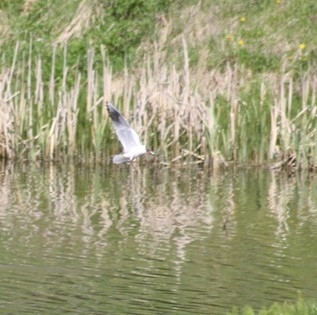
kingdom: Animalia
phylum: Chordata
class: Aves
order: Charadriiformes
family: Laridae
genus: Chroicocephalus
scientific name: Chroicocephalus ridibundus
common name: Black-headed gull
